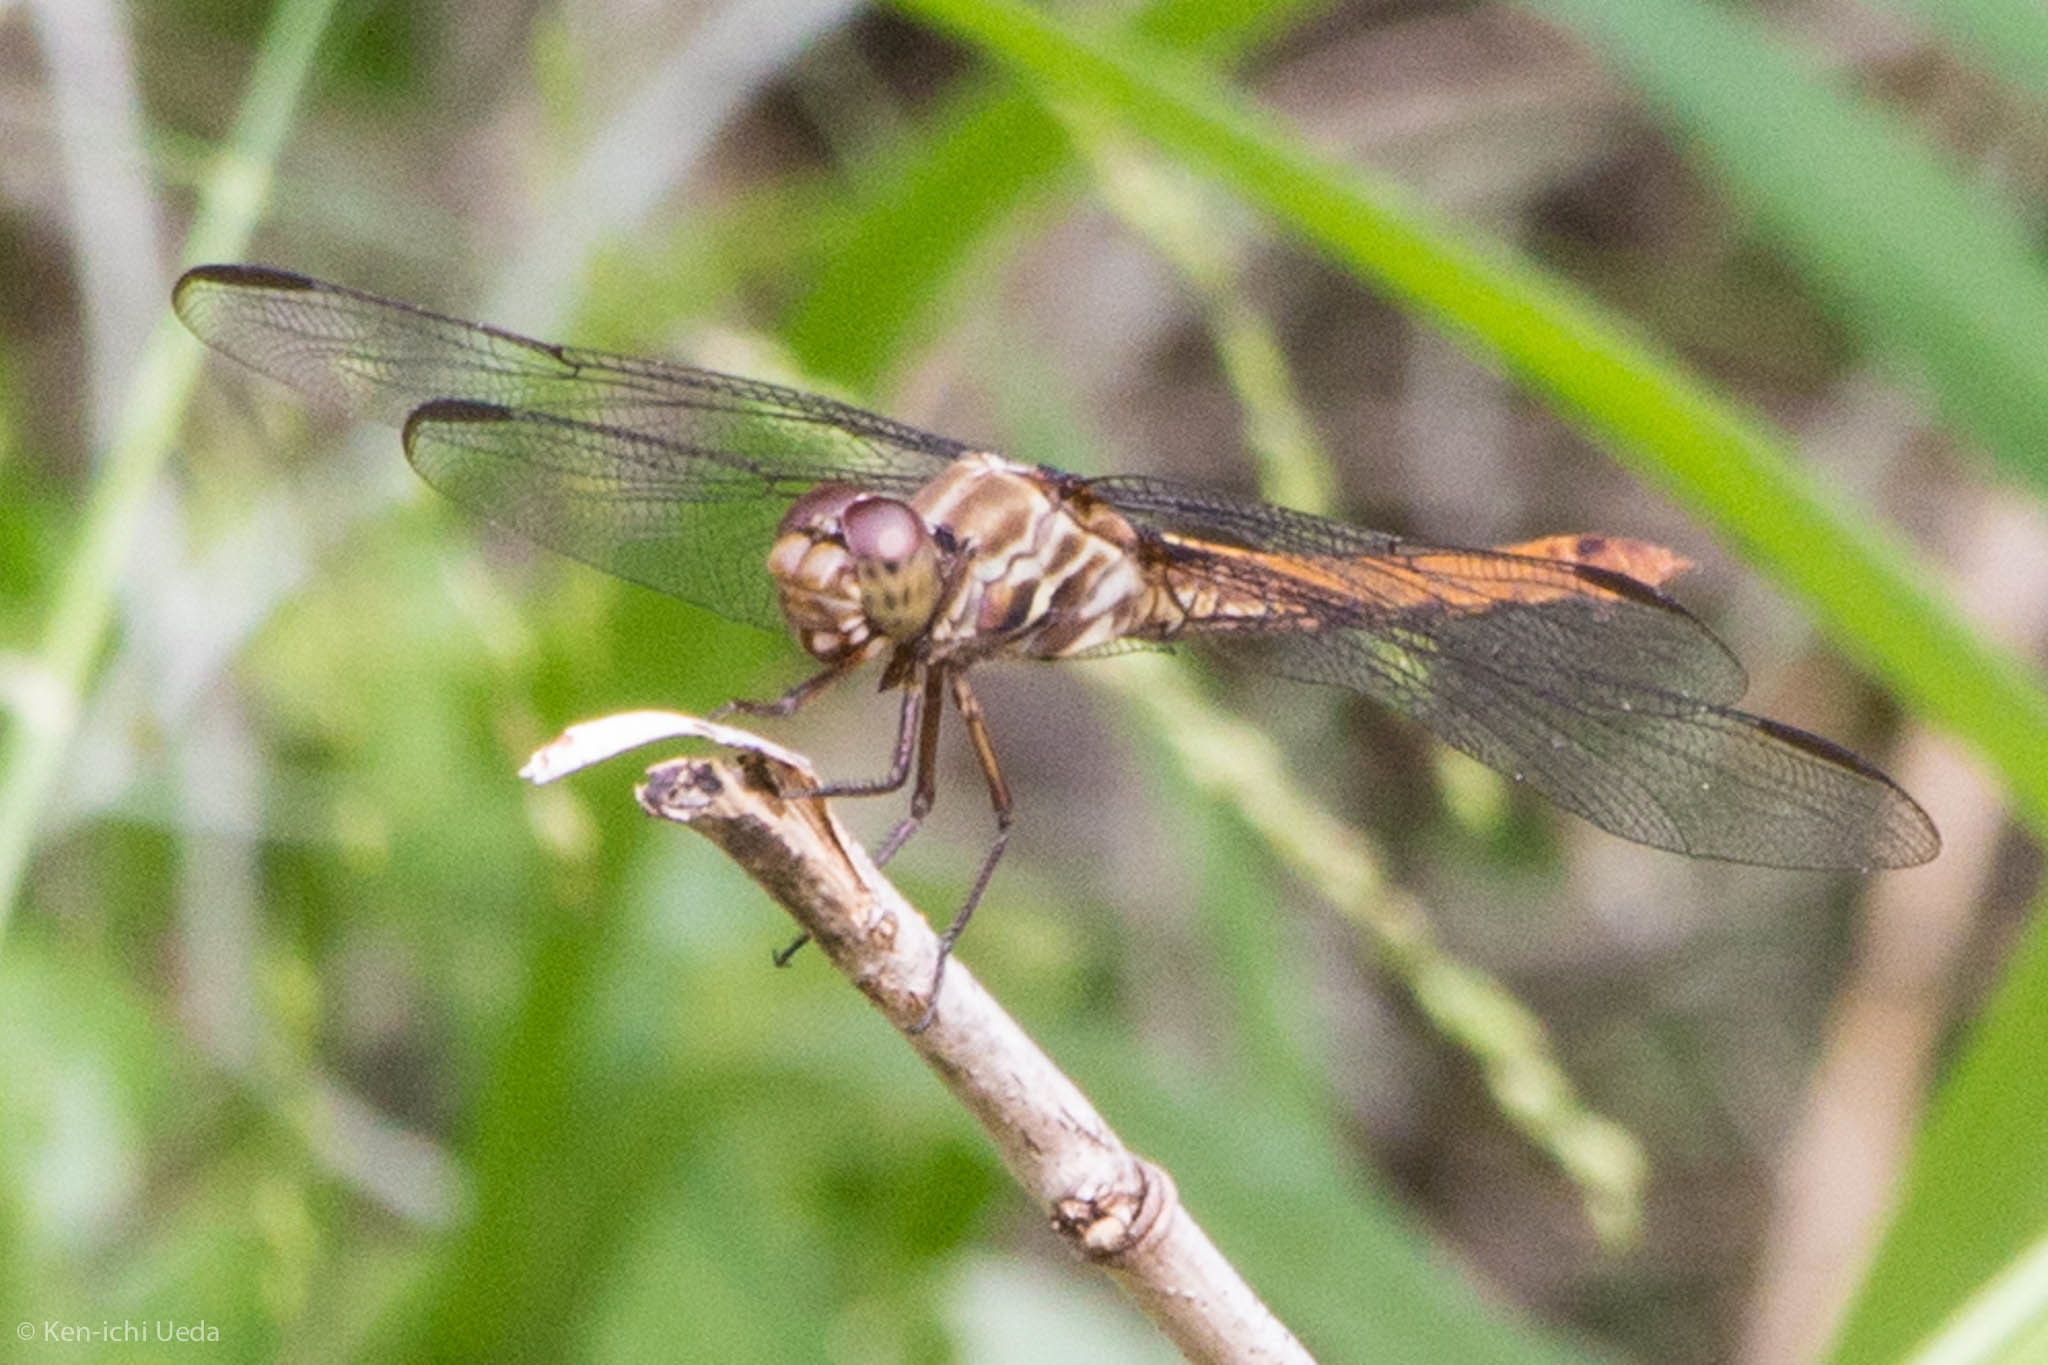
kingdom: Animalia
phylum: Arthropoda
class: Insecta
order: Odonata
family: Libellulidae
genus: Orthemis
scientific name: Orthemis ferruginea
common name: Roseate skimmer
